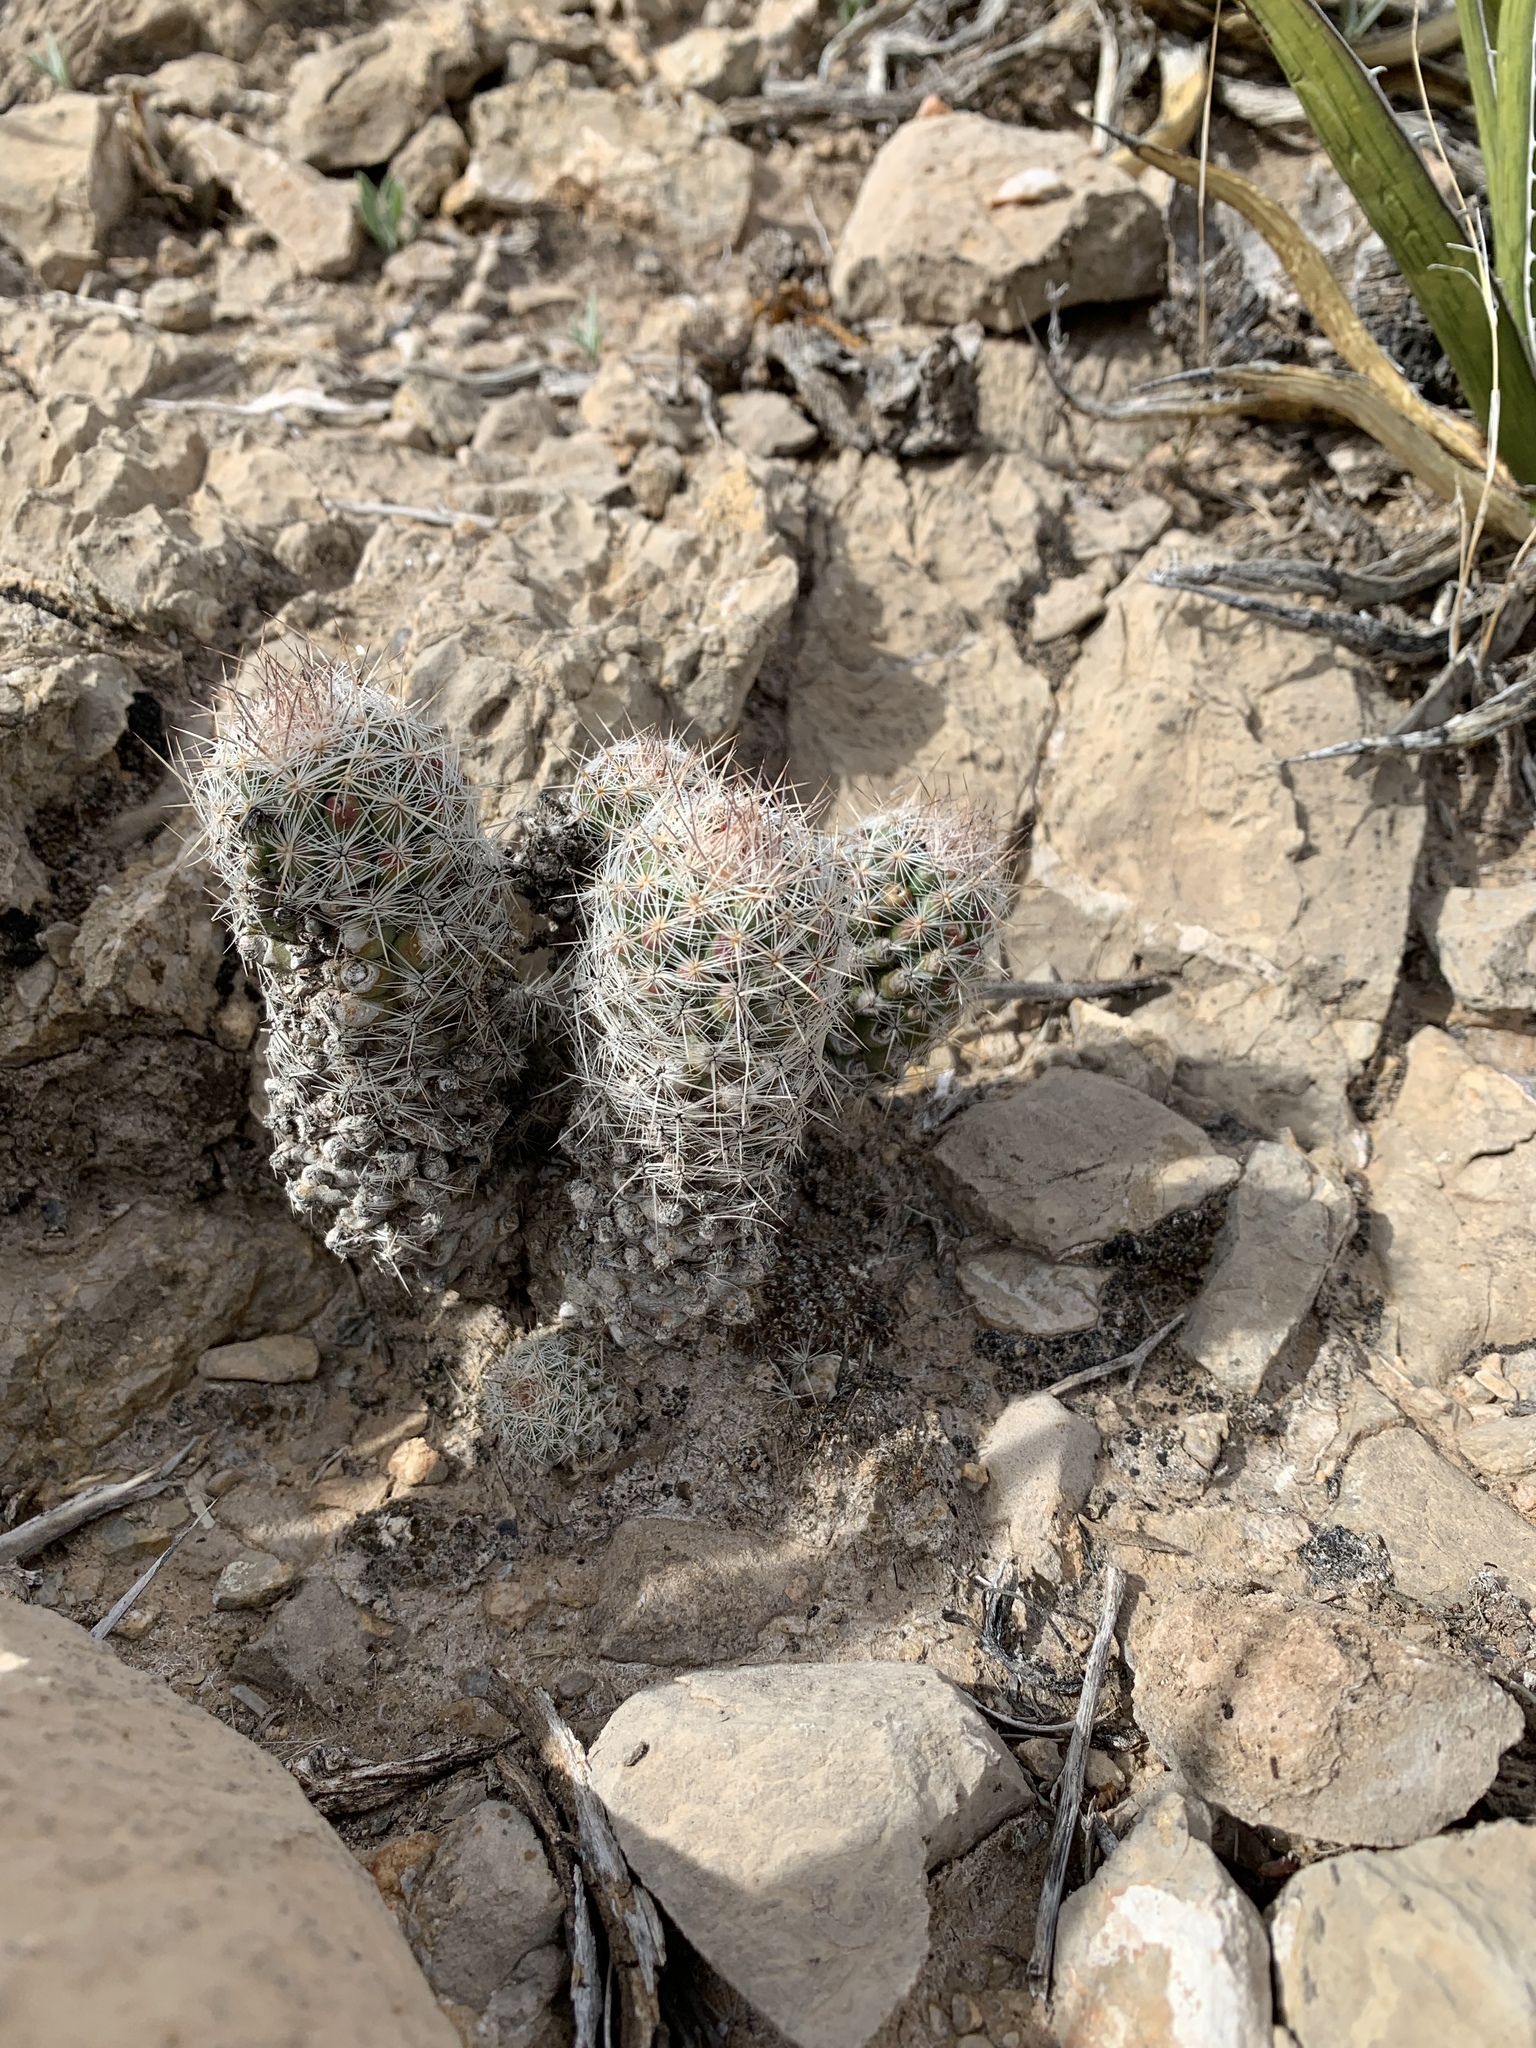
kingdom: Plantae
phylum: Tracheophyta
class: Magnoliopsida
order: Caryophyllales
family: Cactaceae
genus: Pelecyphora
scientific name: Pelecyphora tuberculosa
